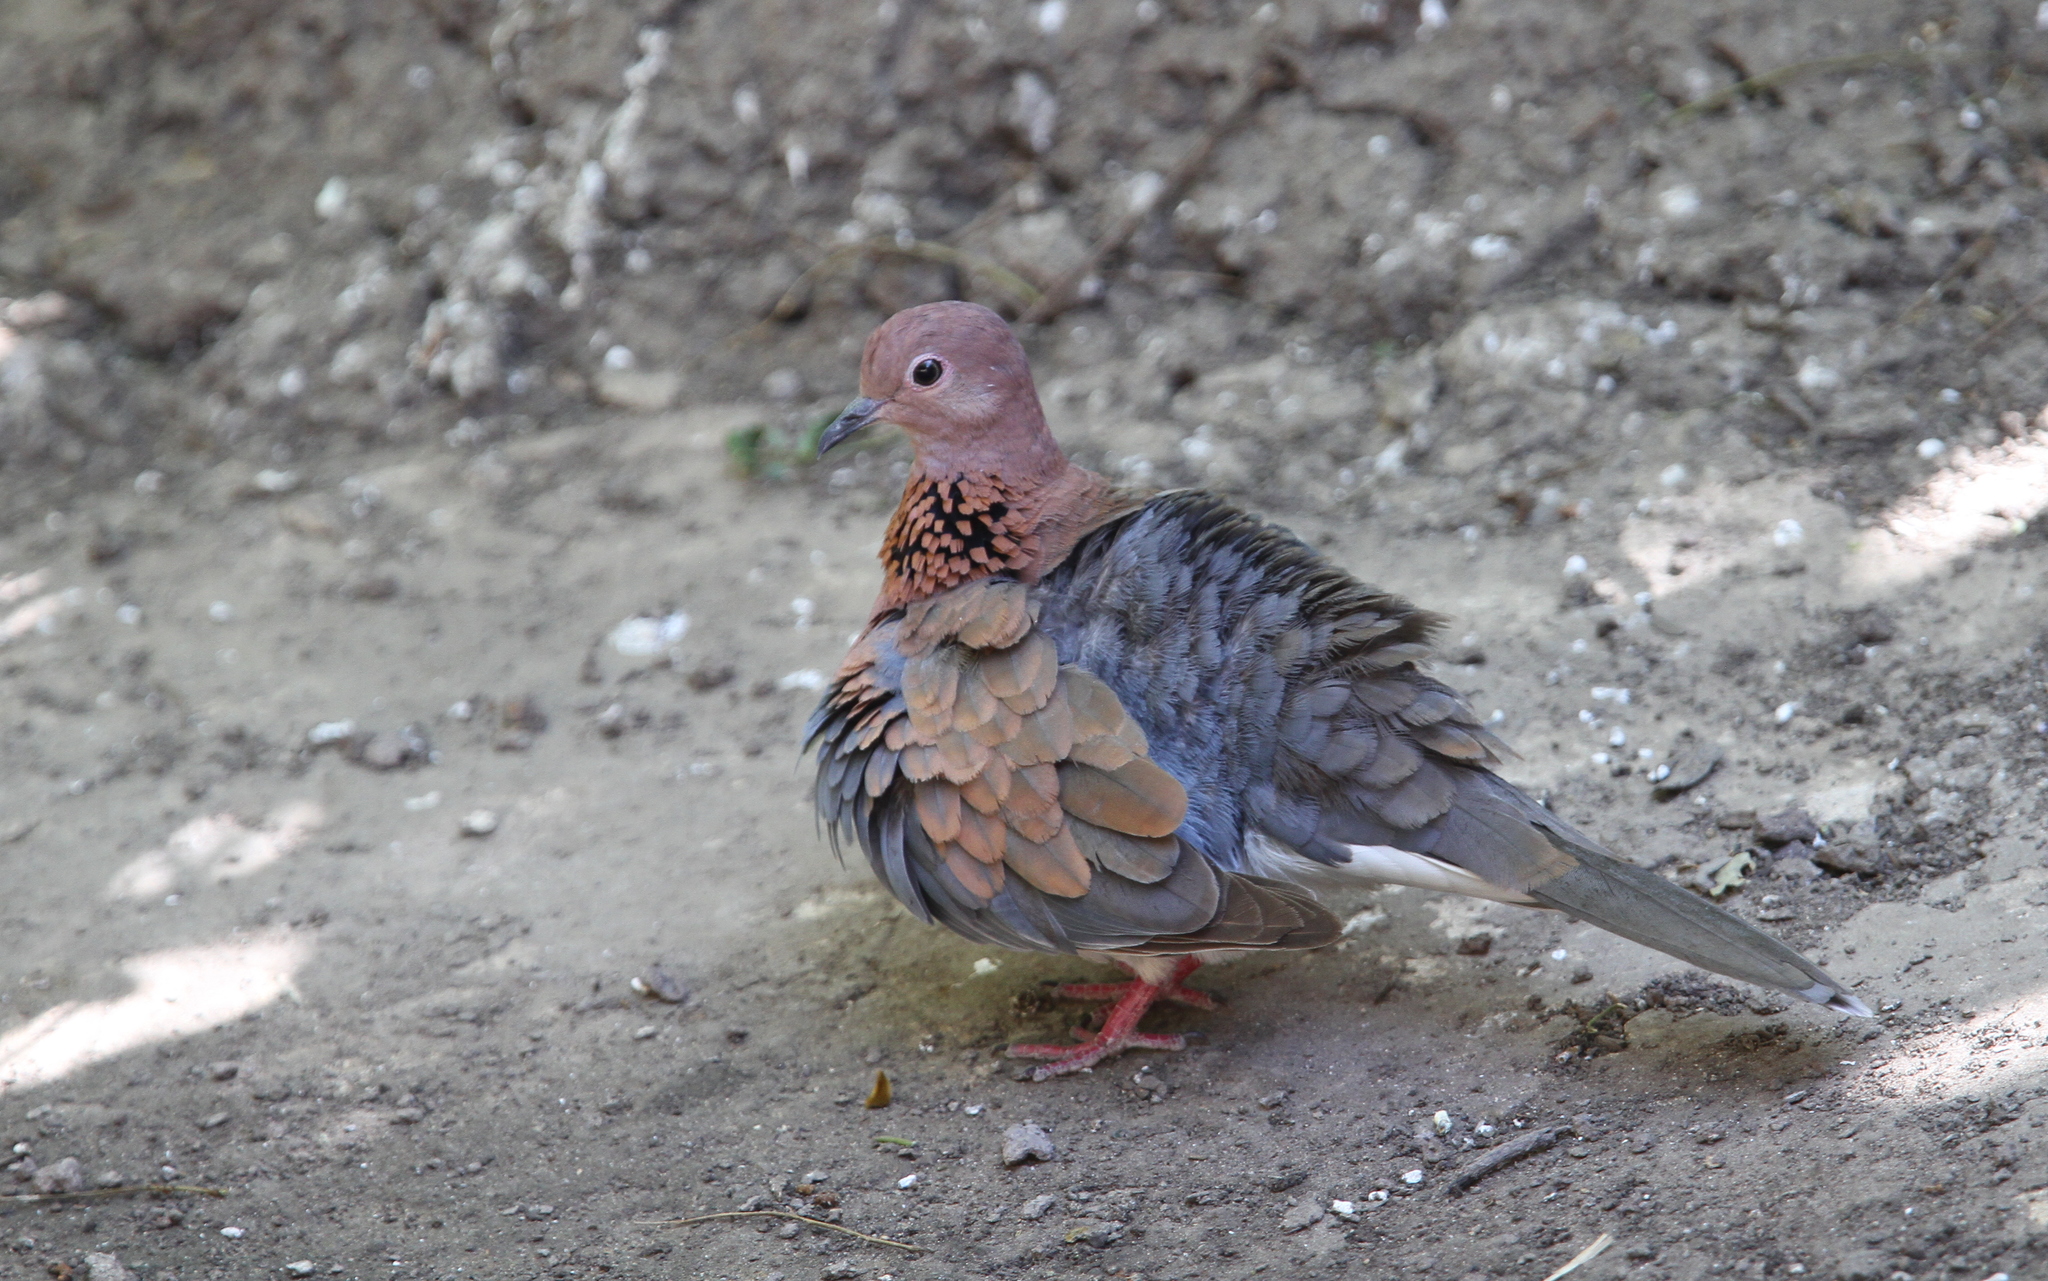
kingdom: Animalia
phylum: Chordata
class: Aves
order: Columbiformes
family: Columbidae
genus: Spilopelia
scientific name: Spilopelia senegalensis
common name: Laughing dove
